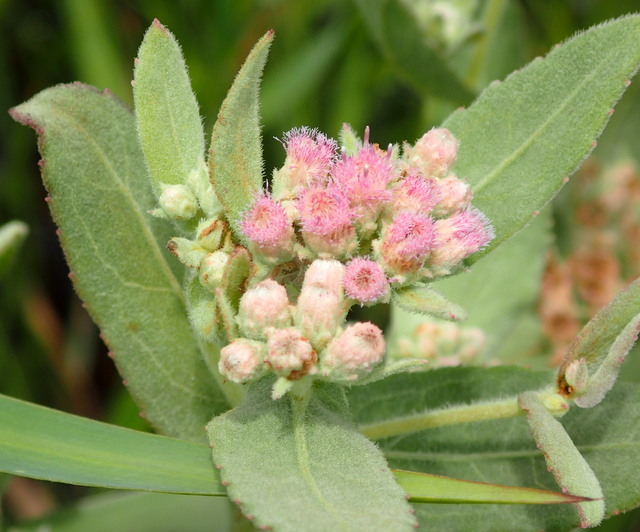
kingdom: Plantae
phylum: Tracheophyta
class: Magnoliopsida
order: Asterales
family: Asteraceae
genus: Pluchea
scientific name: Pluchea baccharis
